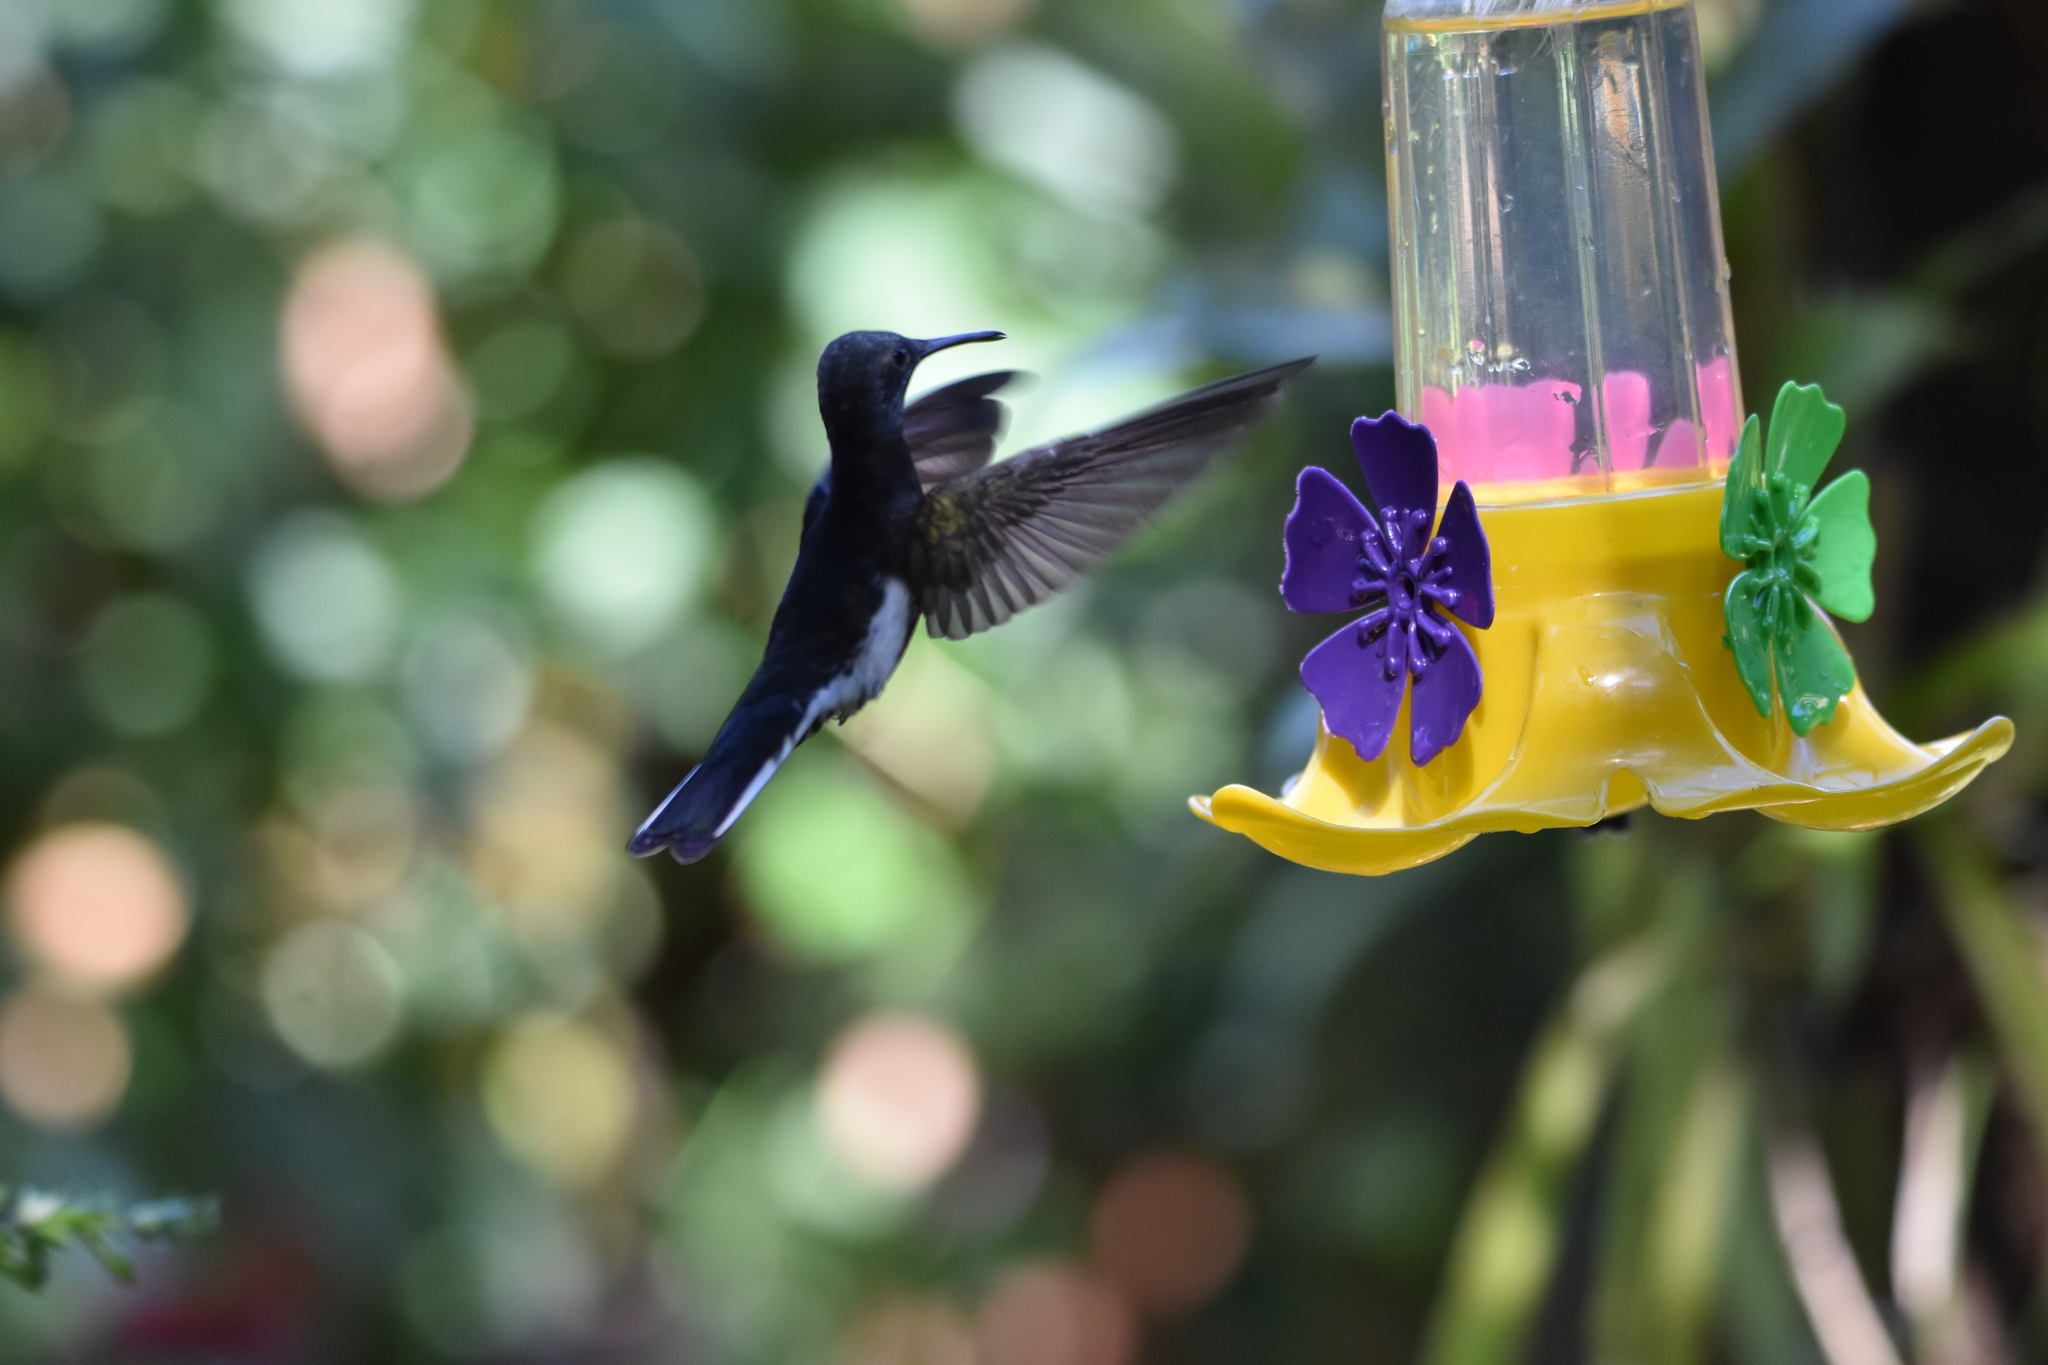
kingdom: Animalia
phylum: Chordata
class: Aves
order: Apodiformes
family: Trochilidae
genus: Florisuga
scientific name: Florisuga fusca
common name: Black jacobin
